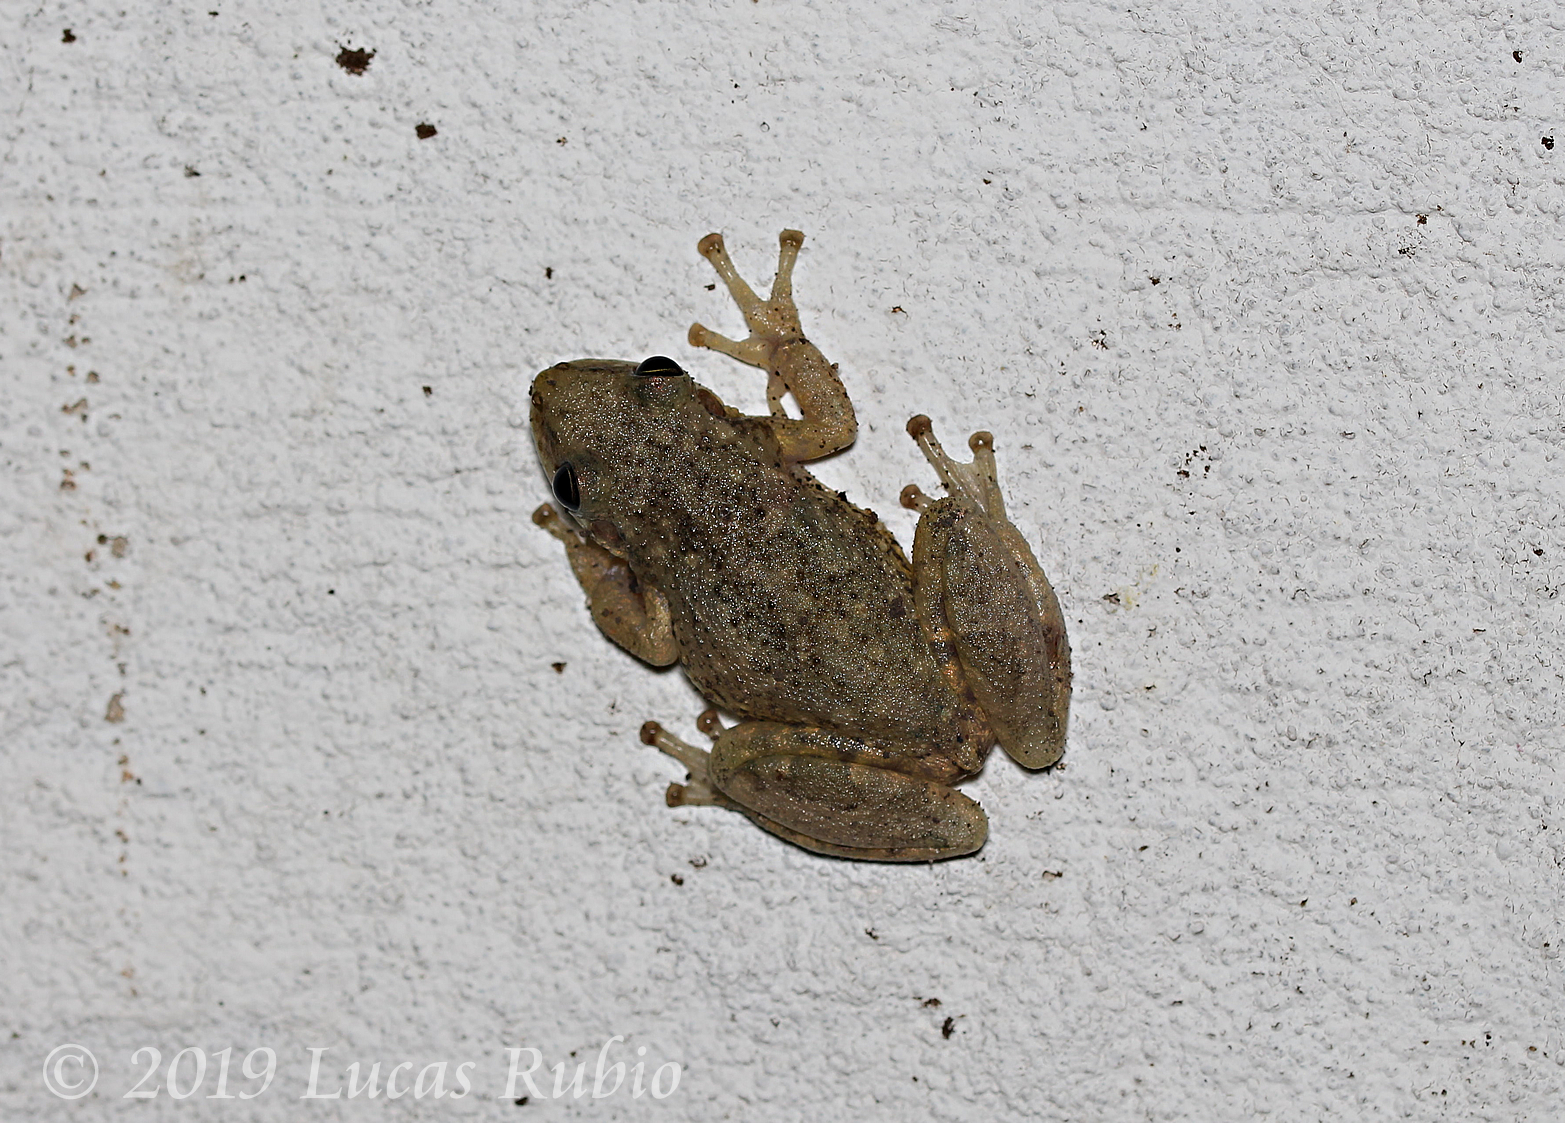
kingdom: Animalia
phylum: Chordata
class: Amphibia
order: Anura
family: Hylidae
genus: Scinax
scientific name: Scinax granulatus
